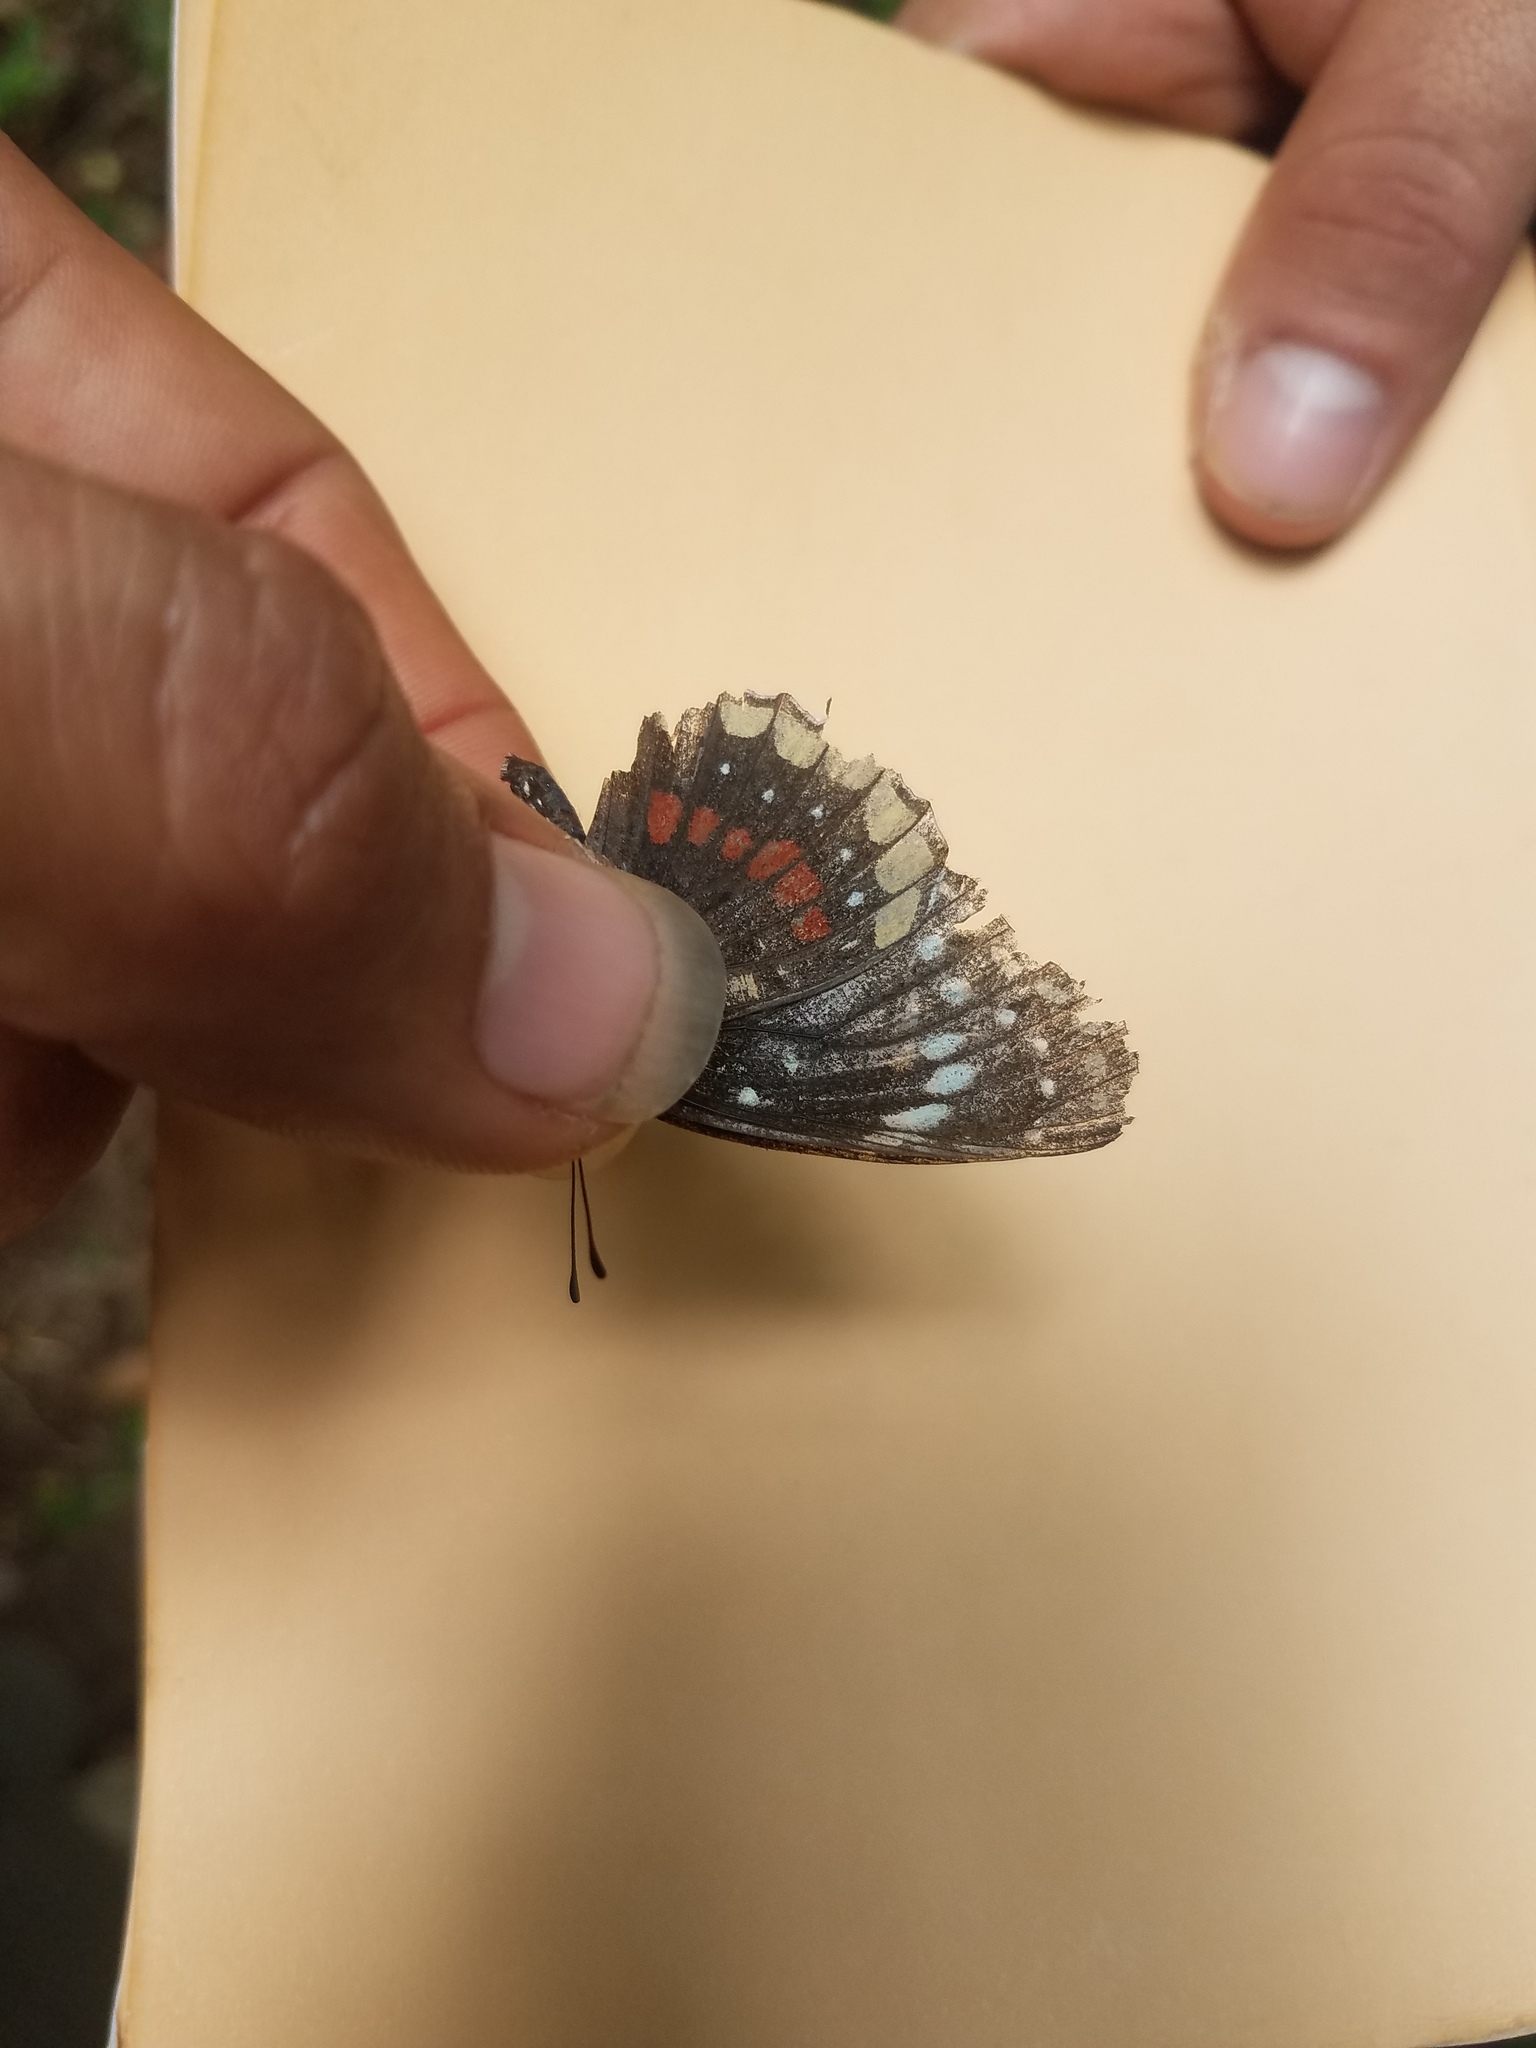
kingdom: Animalia
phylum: Arthropoda
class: Insecta
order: Lepidoptera
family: Nymphalidae
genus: Chlosyne
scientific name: Chlosyne hippodrome
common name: Simple patch
